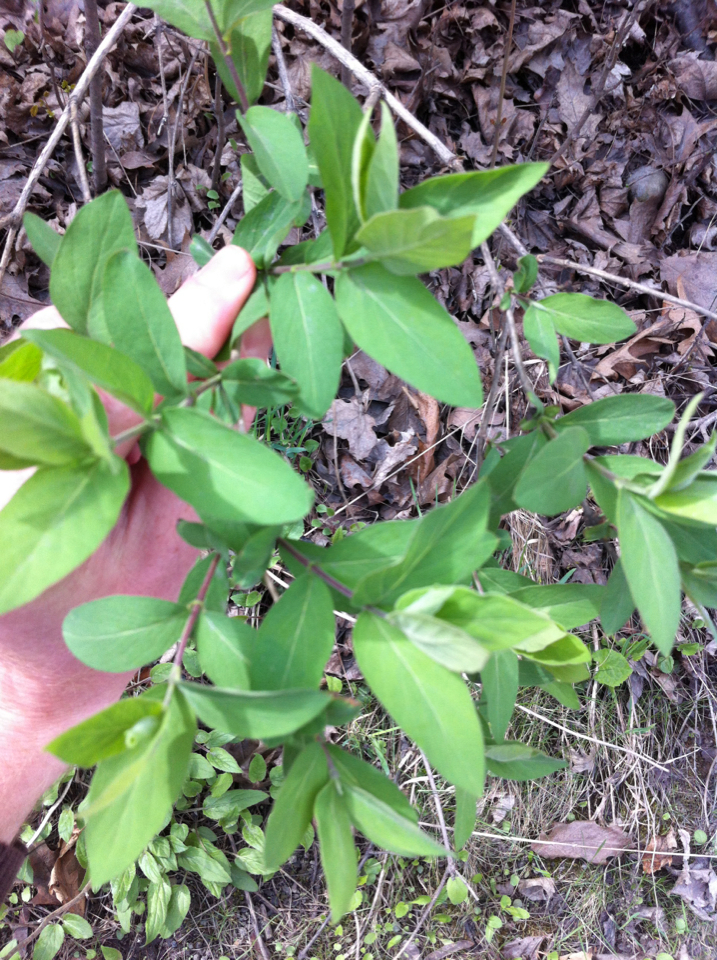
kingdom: Plantae
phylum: Tracheophyta
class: Magnoliopsida
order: Dipsacales
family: Caprifoliaceae
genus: Lonicera
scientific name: Lonicera morrowii
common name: Morrow's honeysuckle
